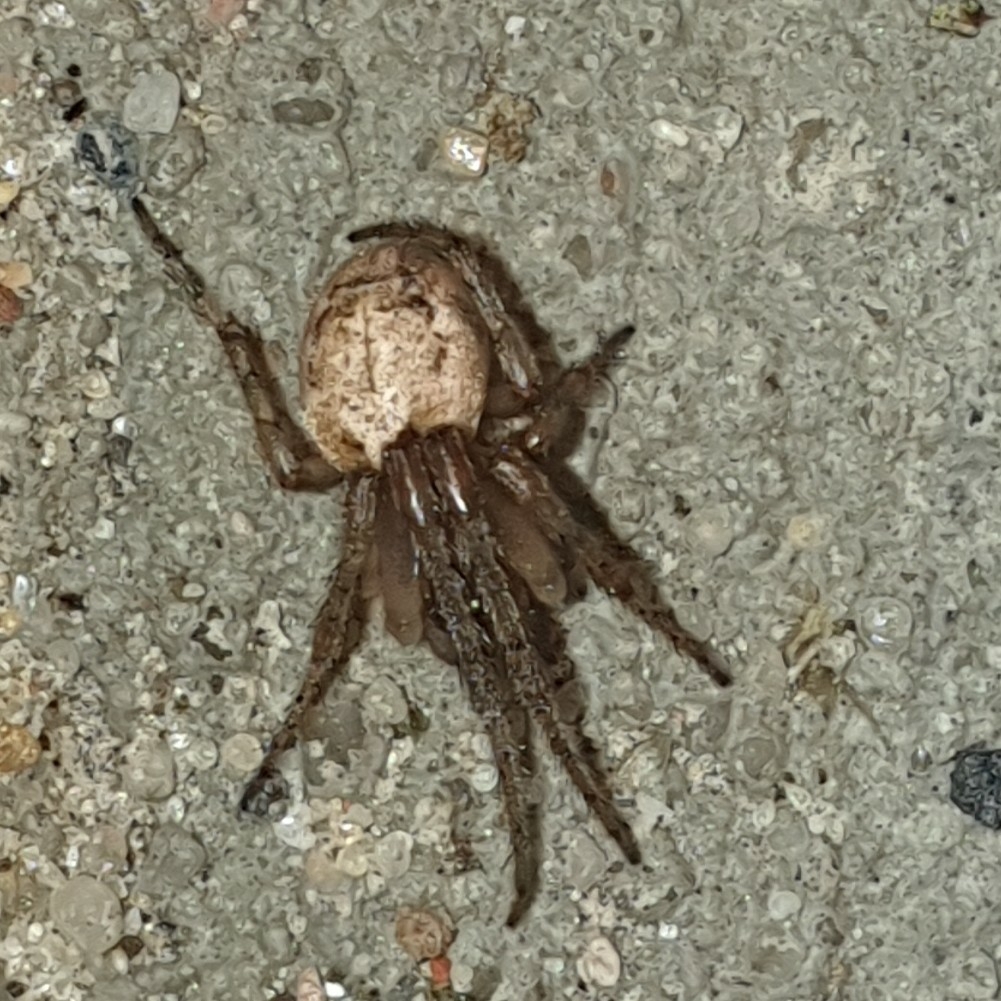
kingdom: Animalia
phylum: Arthropoda
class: Arachnida
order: Araneae
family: Araneidae
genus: Zygiella
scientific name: Zygiella x-notata
